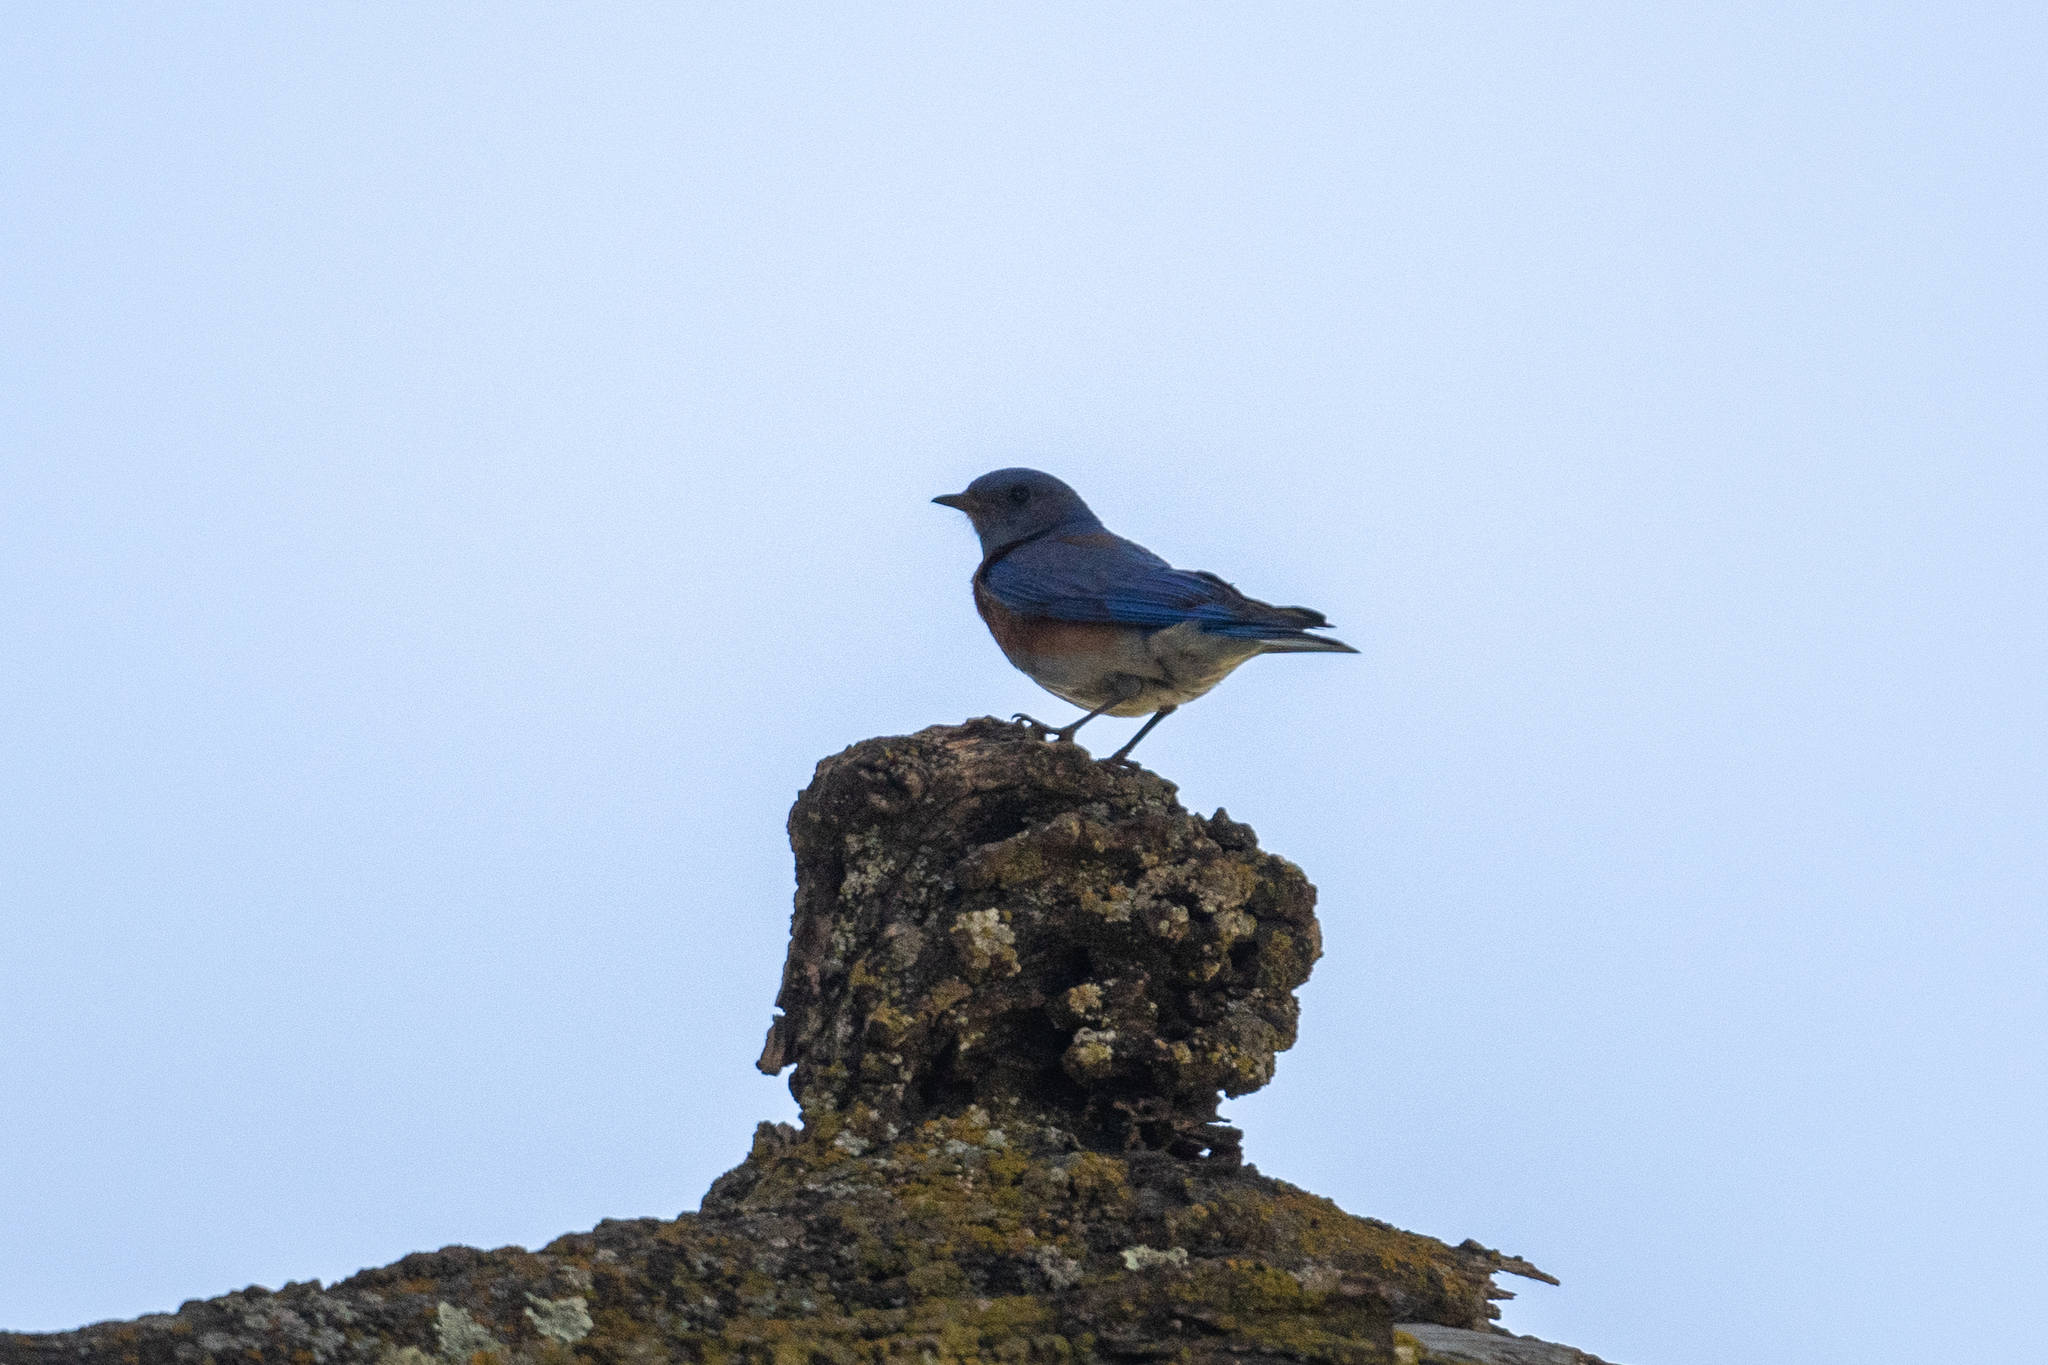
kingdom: Animalia
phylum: Chordata
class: Aves
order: Passeriformes
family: Turdidae
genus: Sialia
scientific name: Sialia mexicana
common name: Western bluebird
